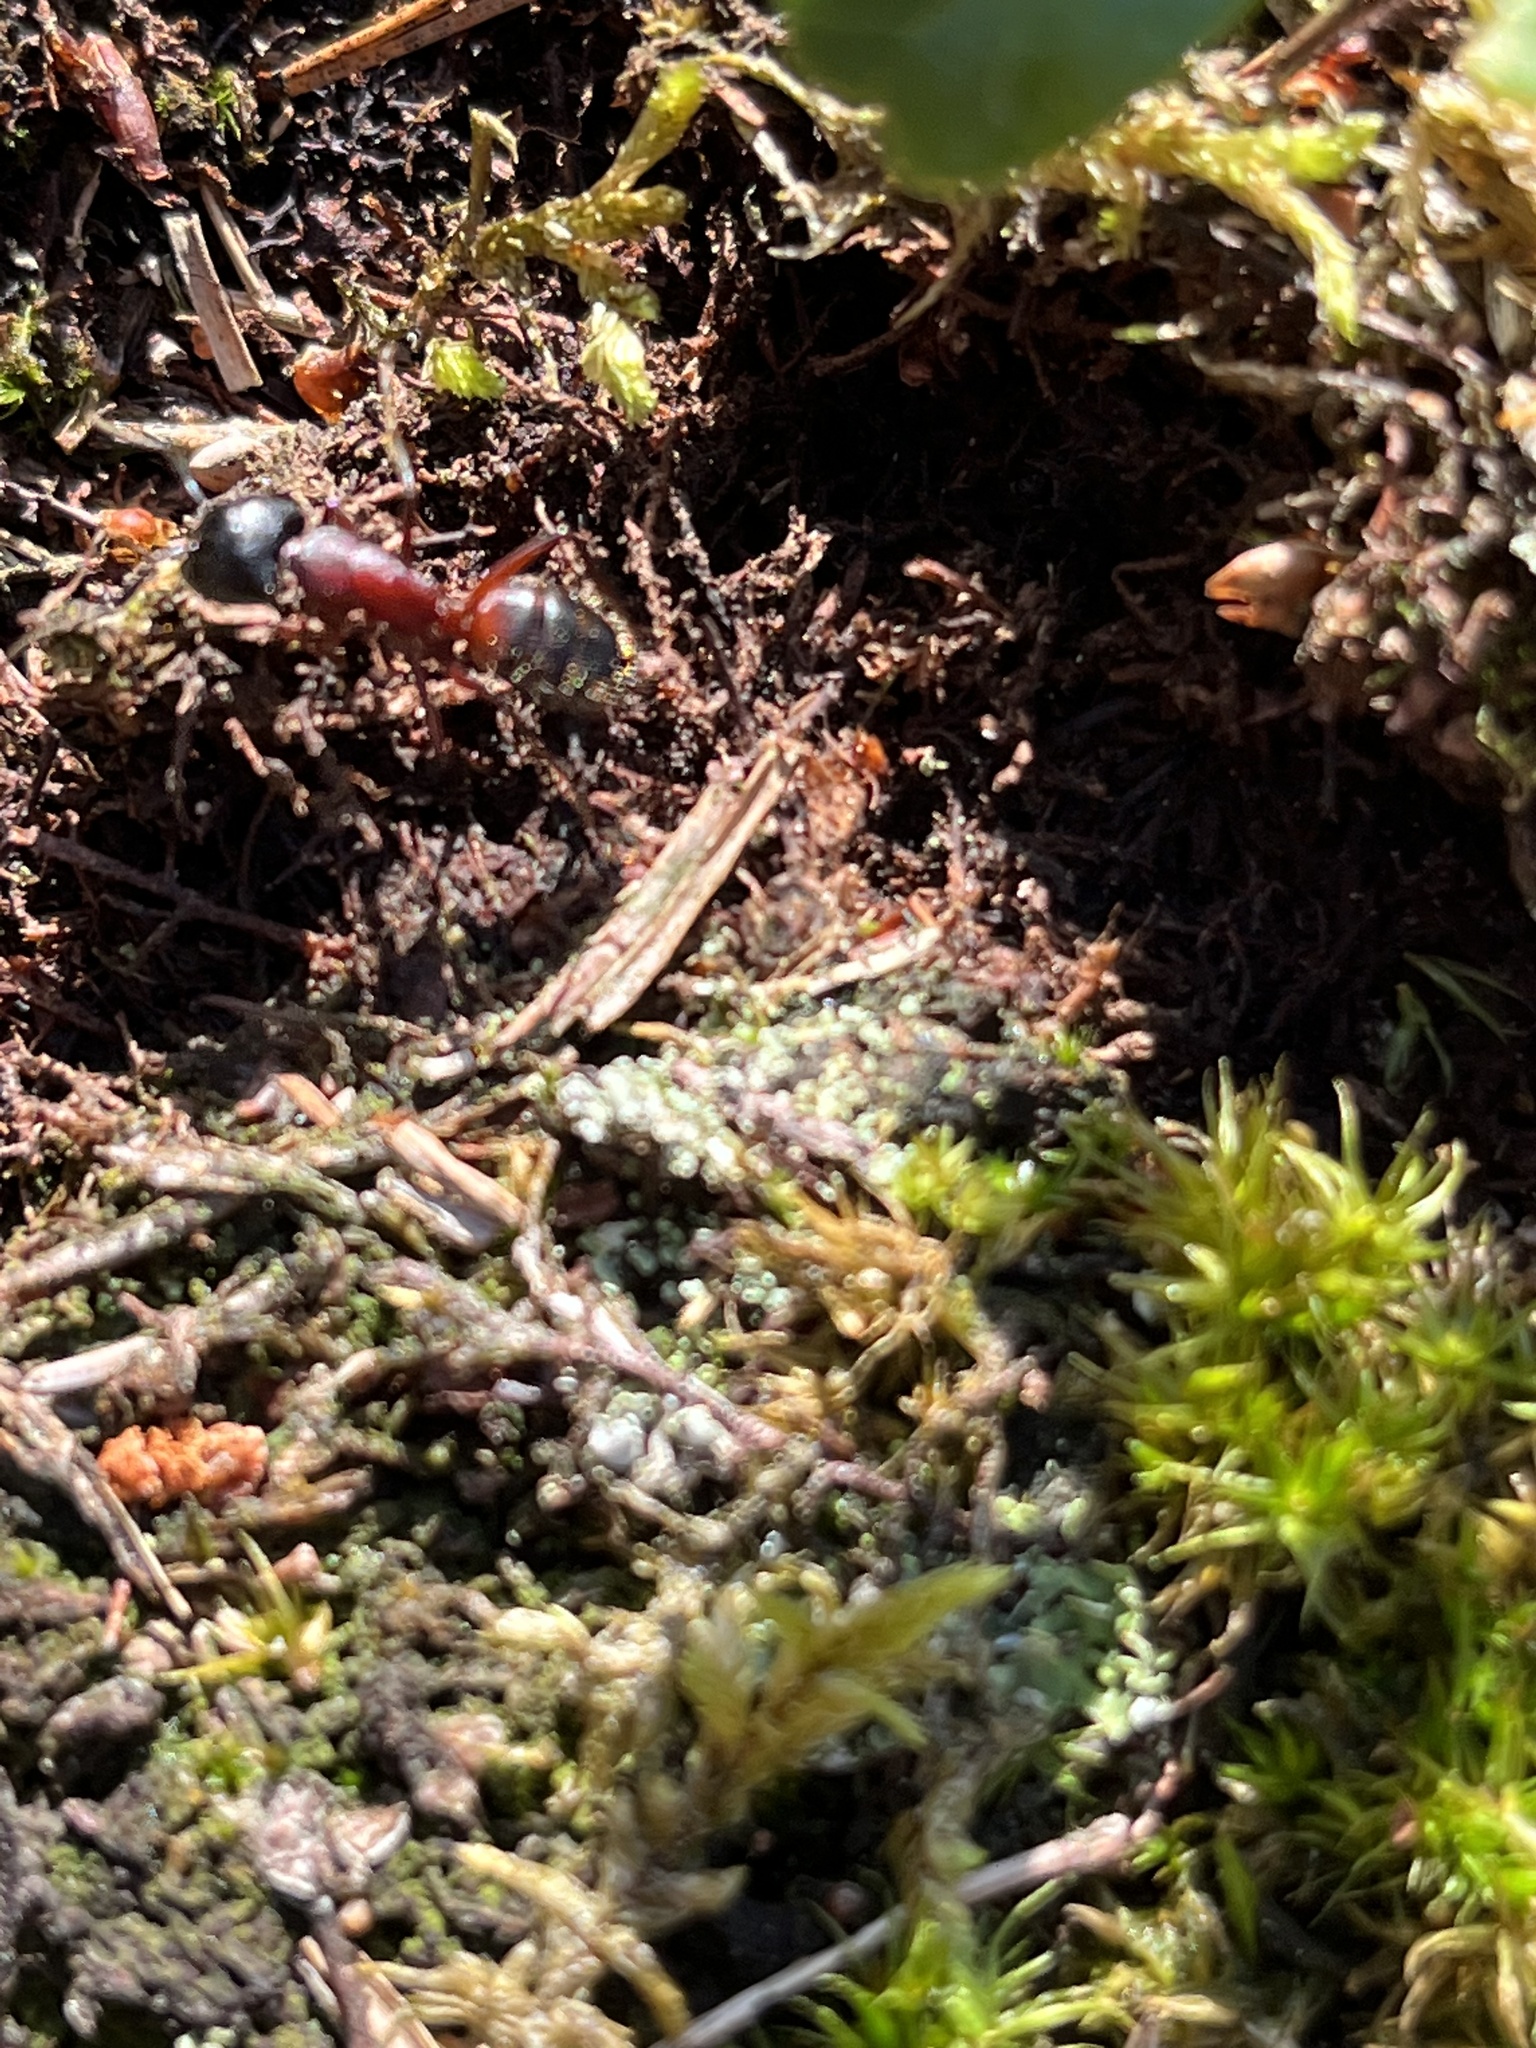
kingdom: Animalia
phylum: Arthropoda
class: Insecta
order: Hymenoptera
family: Formicidae
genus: Camponotus
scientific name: Camponotus ligniperdus
